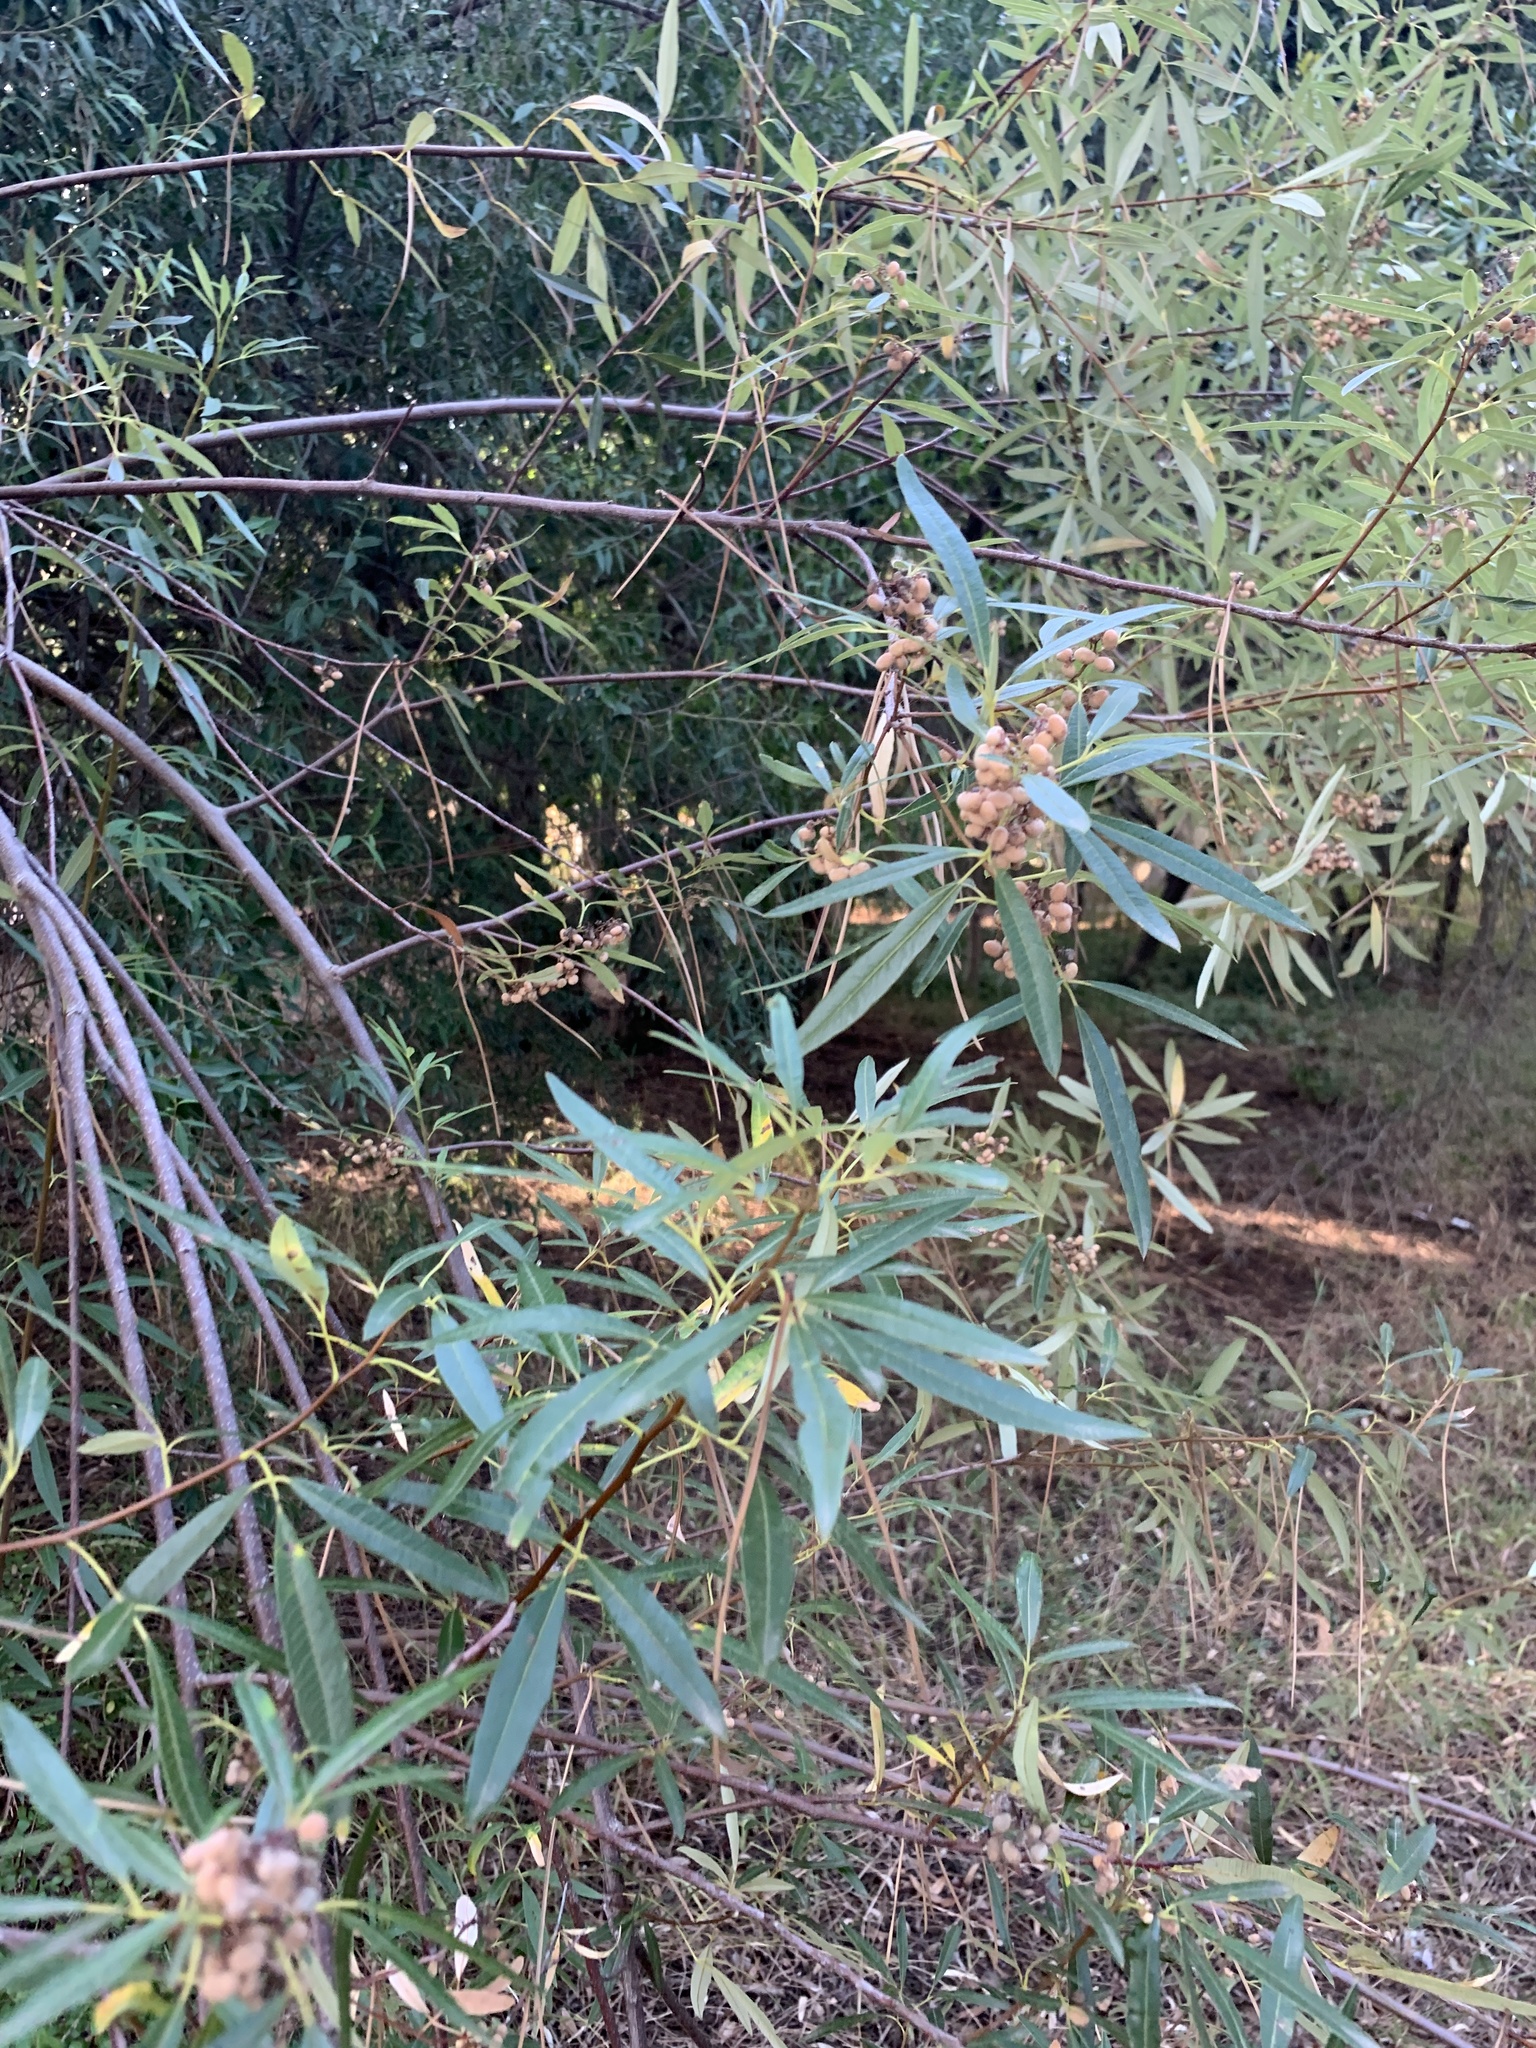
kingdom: Plantae
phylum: Tracheophyta
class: Magnoliopsida
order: Sapindales
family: Anacardiaceae
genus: Searsia
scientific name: Searsia angustifolia
